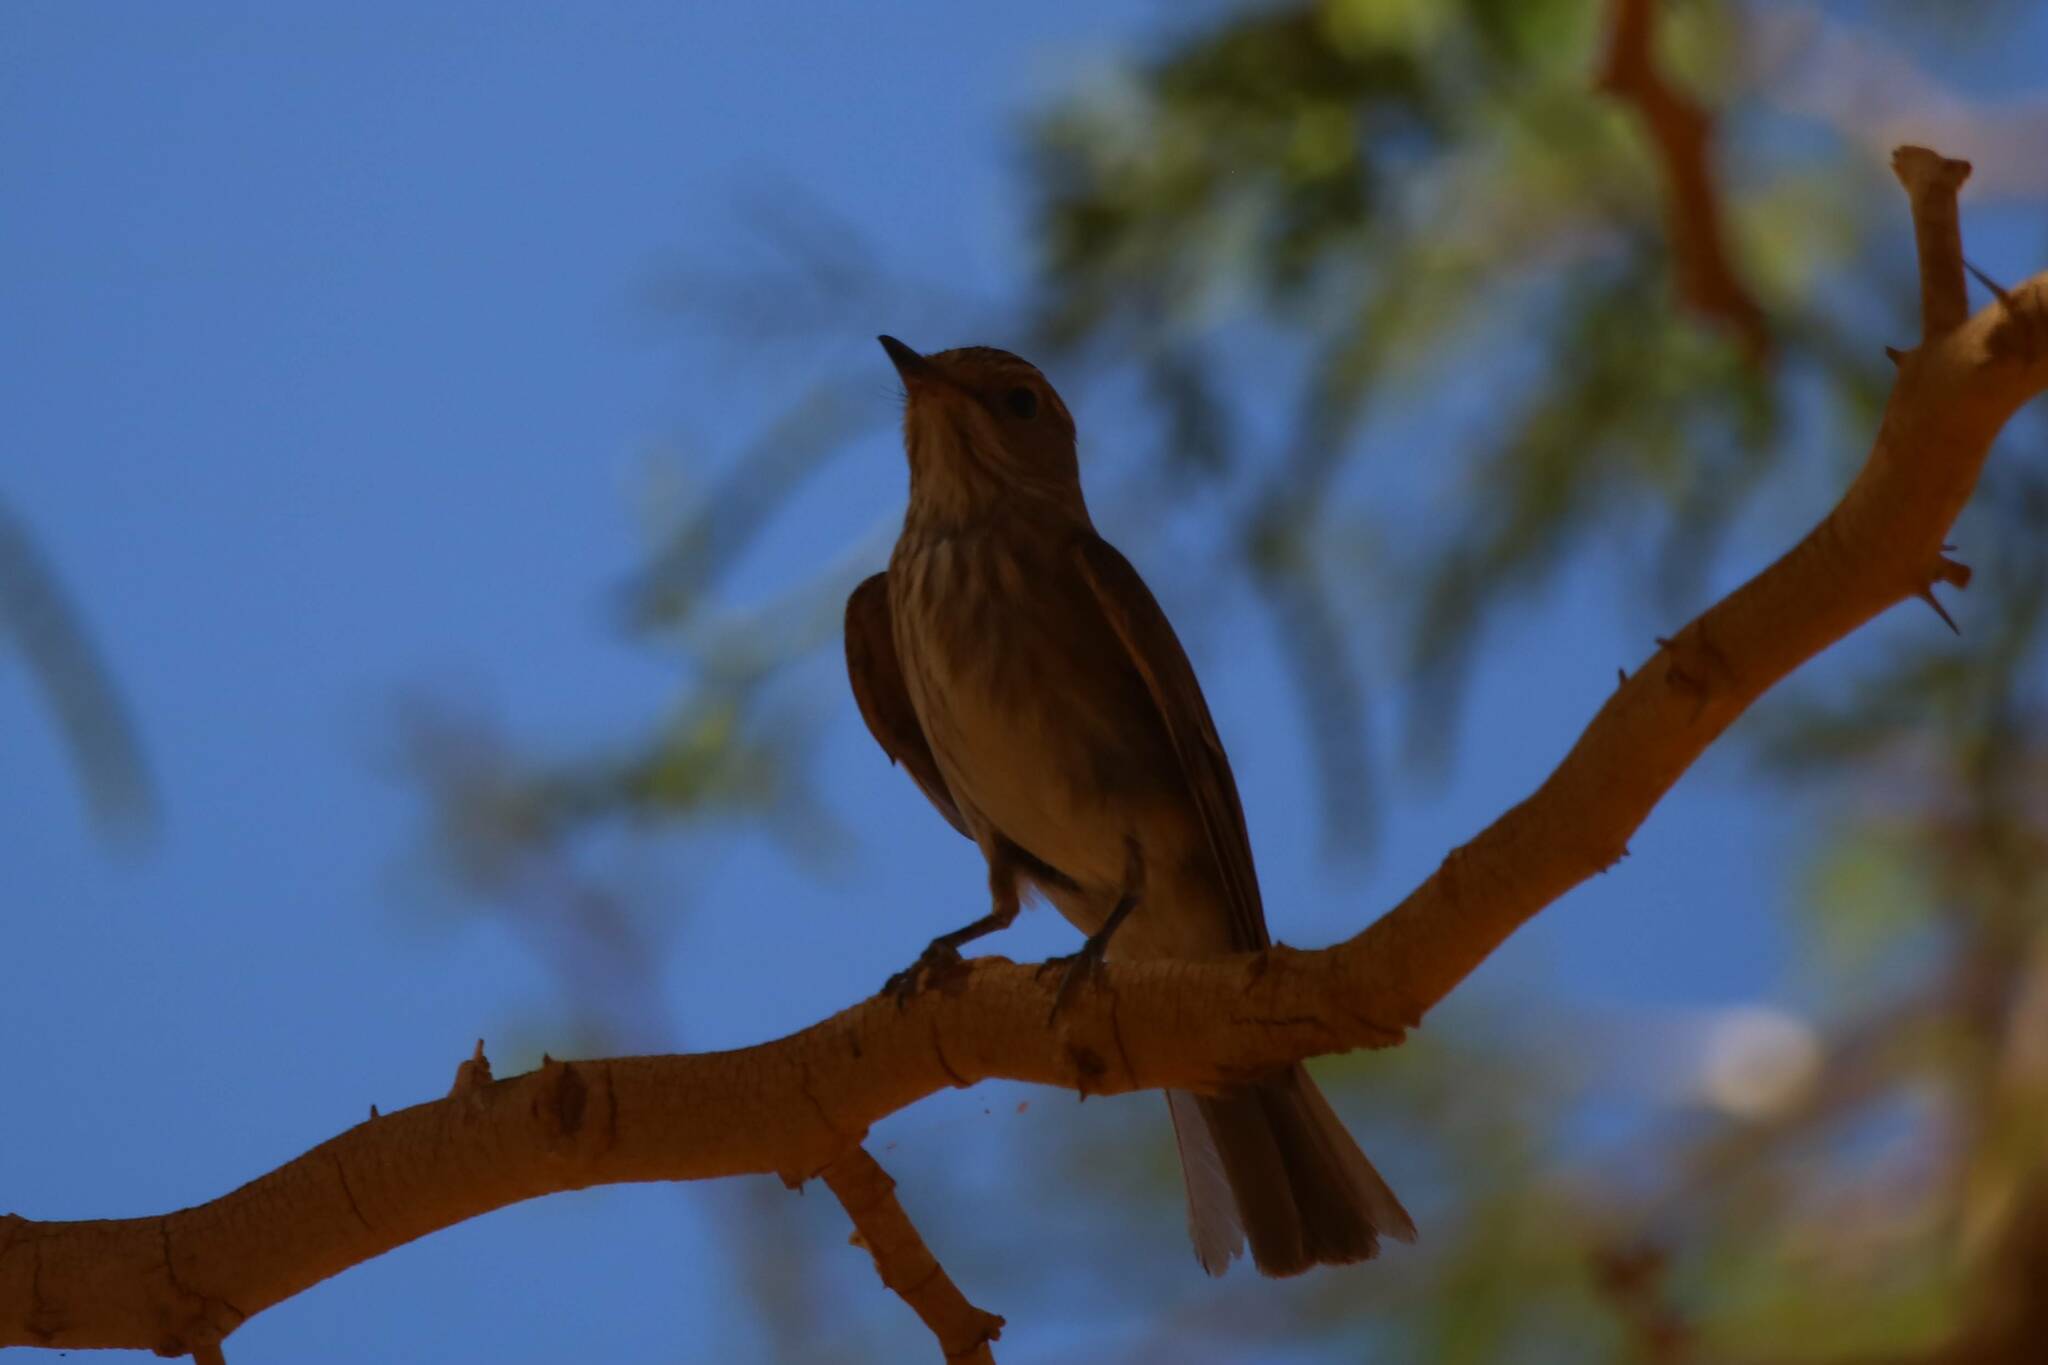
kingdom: Animalia
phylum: Chordata
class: Aves
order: Passeriformes
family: Muscicapidae
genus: Muscicapa
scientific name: Muscicapa striata
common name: Spotted flycatcher
